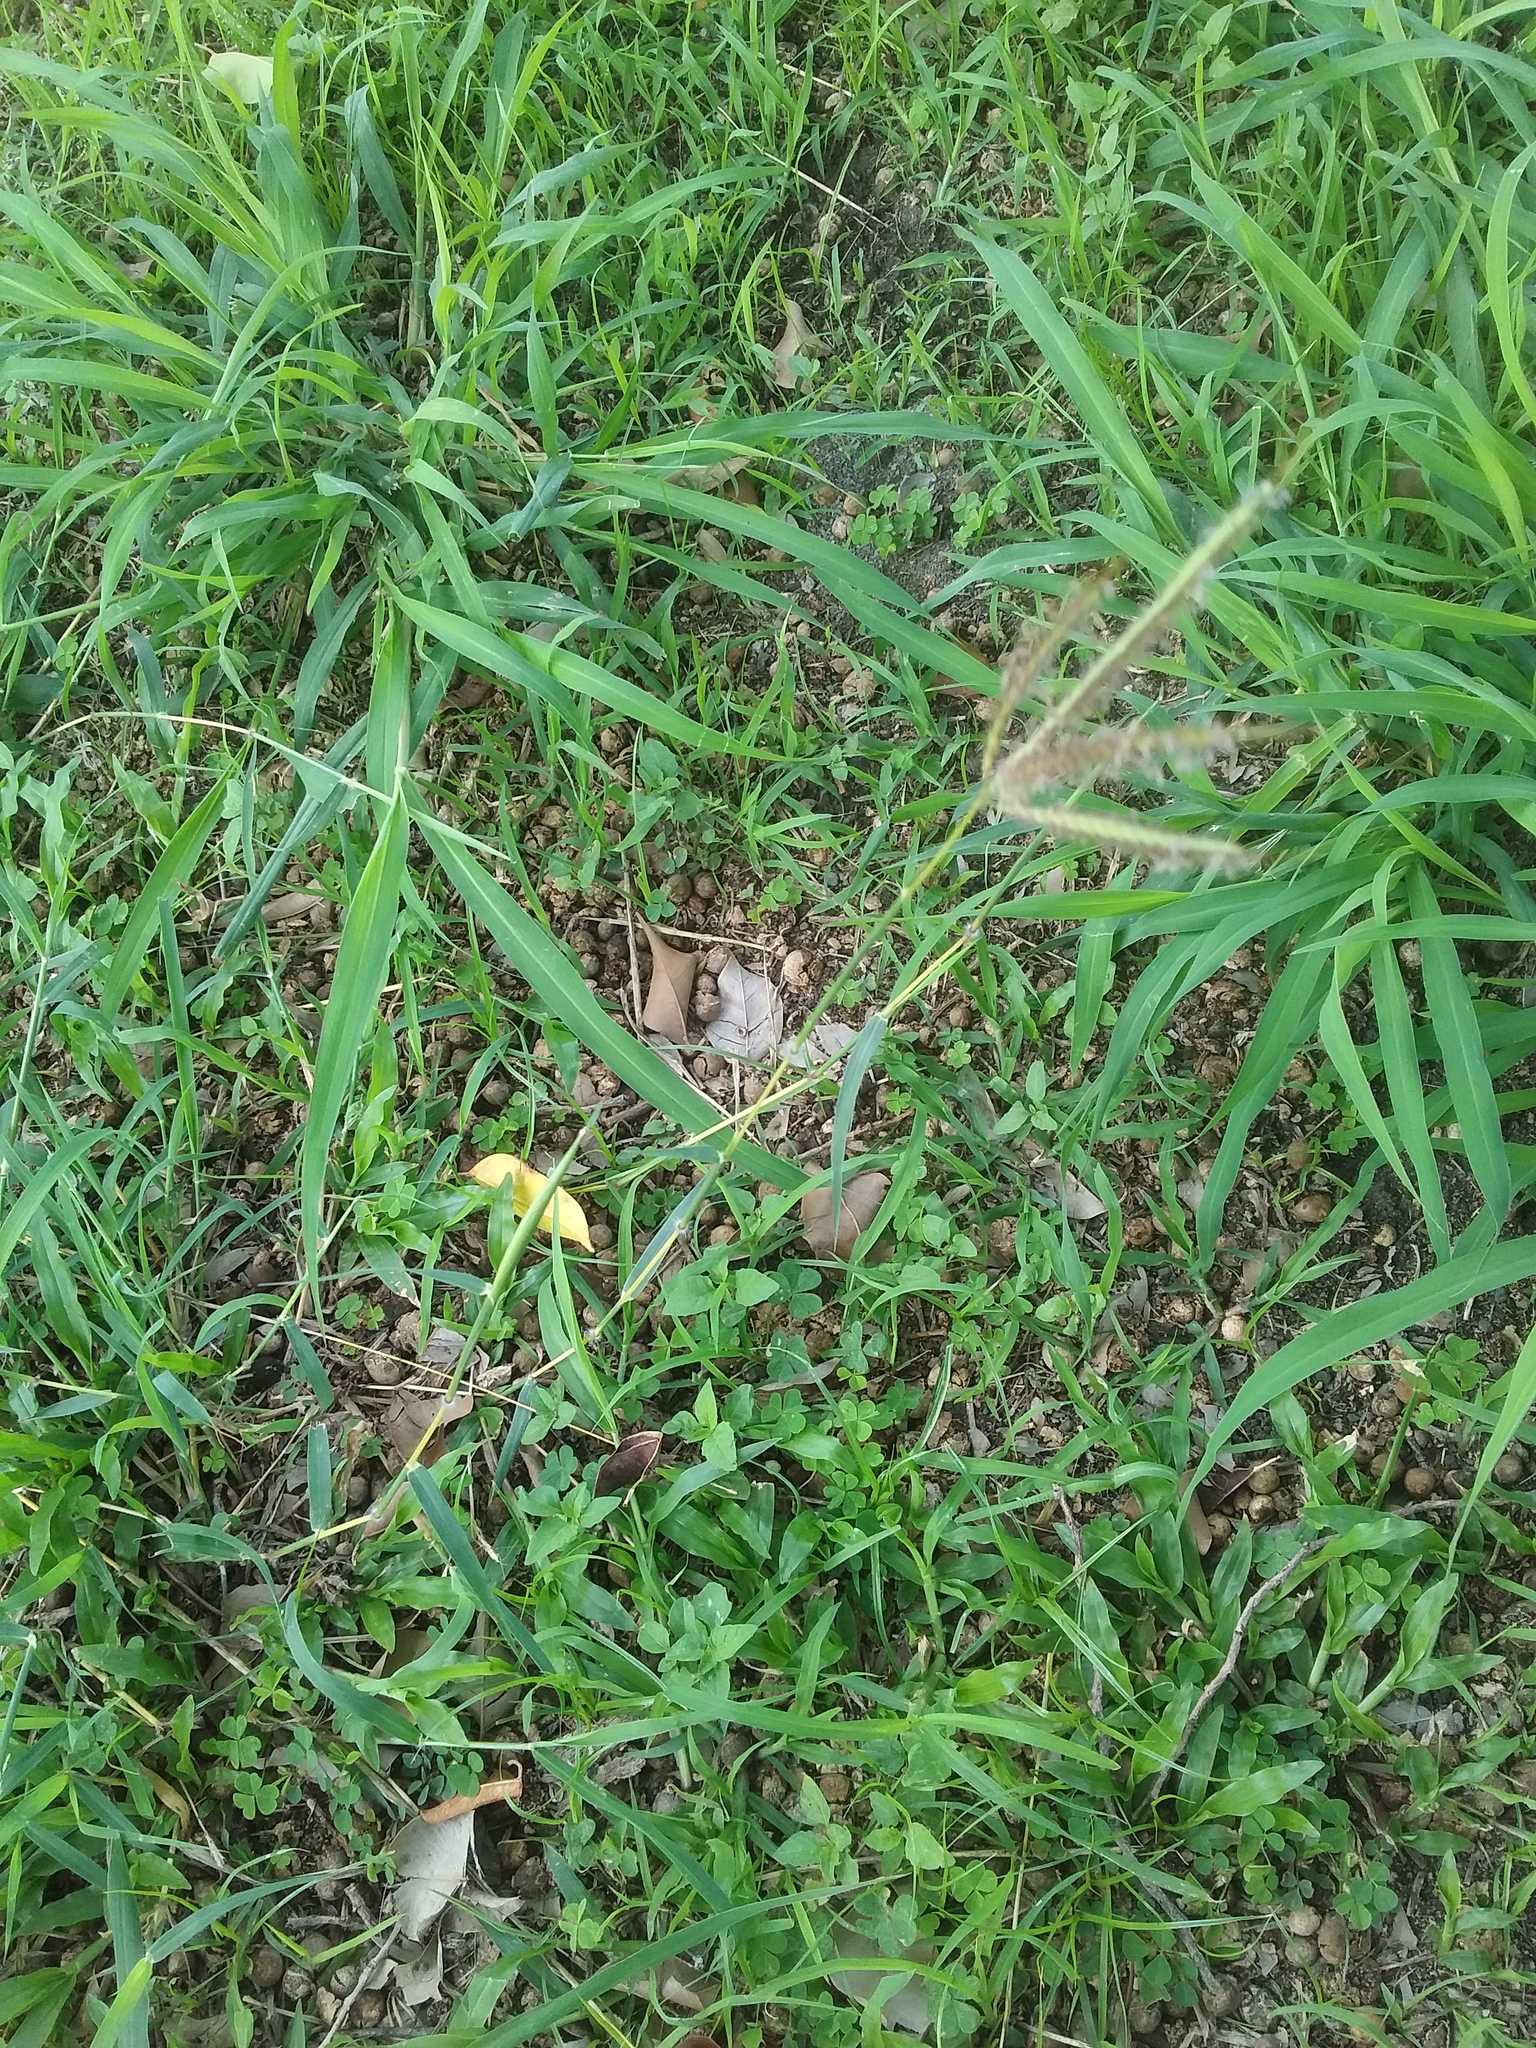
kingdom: Plantae
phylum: Tracheophyta
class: Liliopsida
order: Poales
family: Poaceae
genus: Dichanthium
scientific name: Dichanthium annulatum
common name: Kleberg's bluestem
